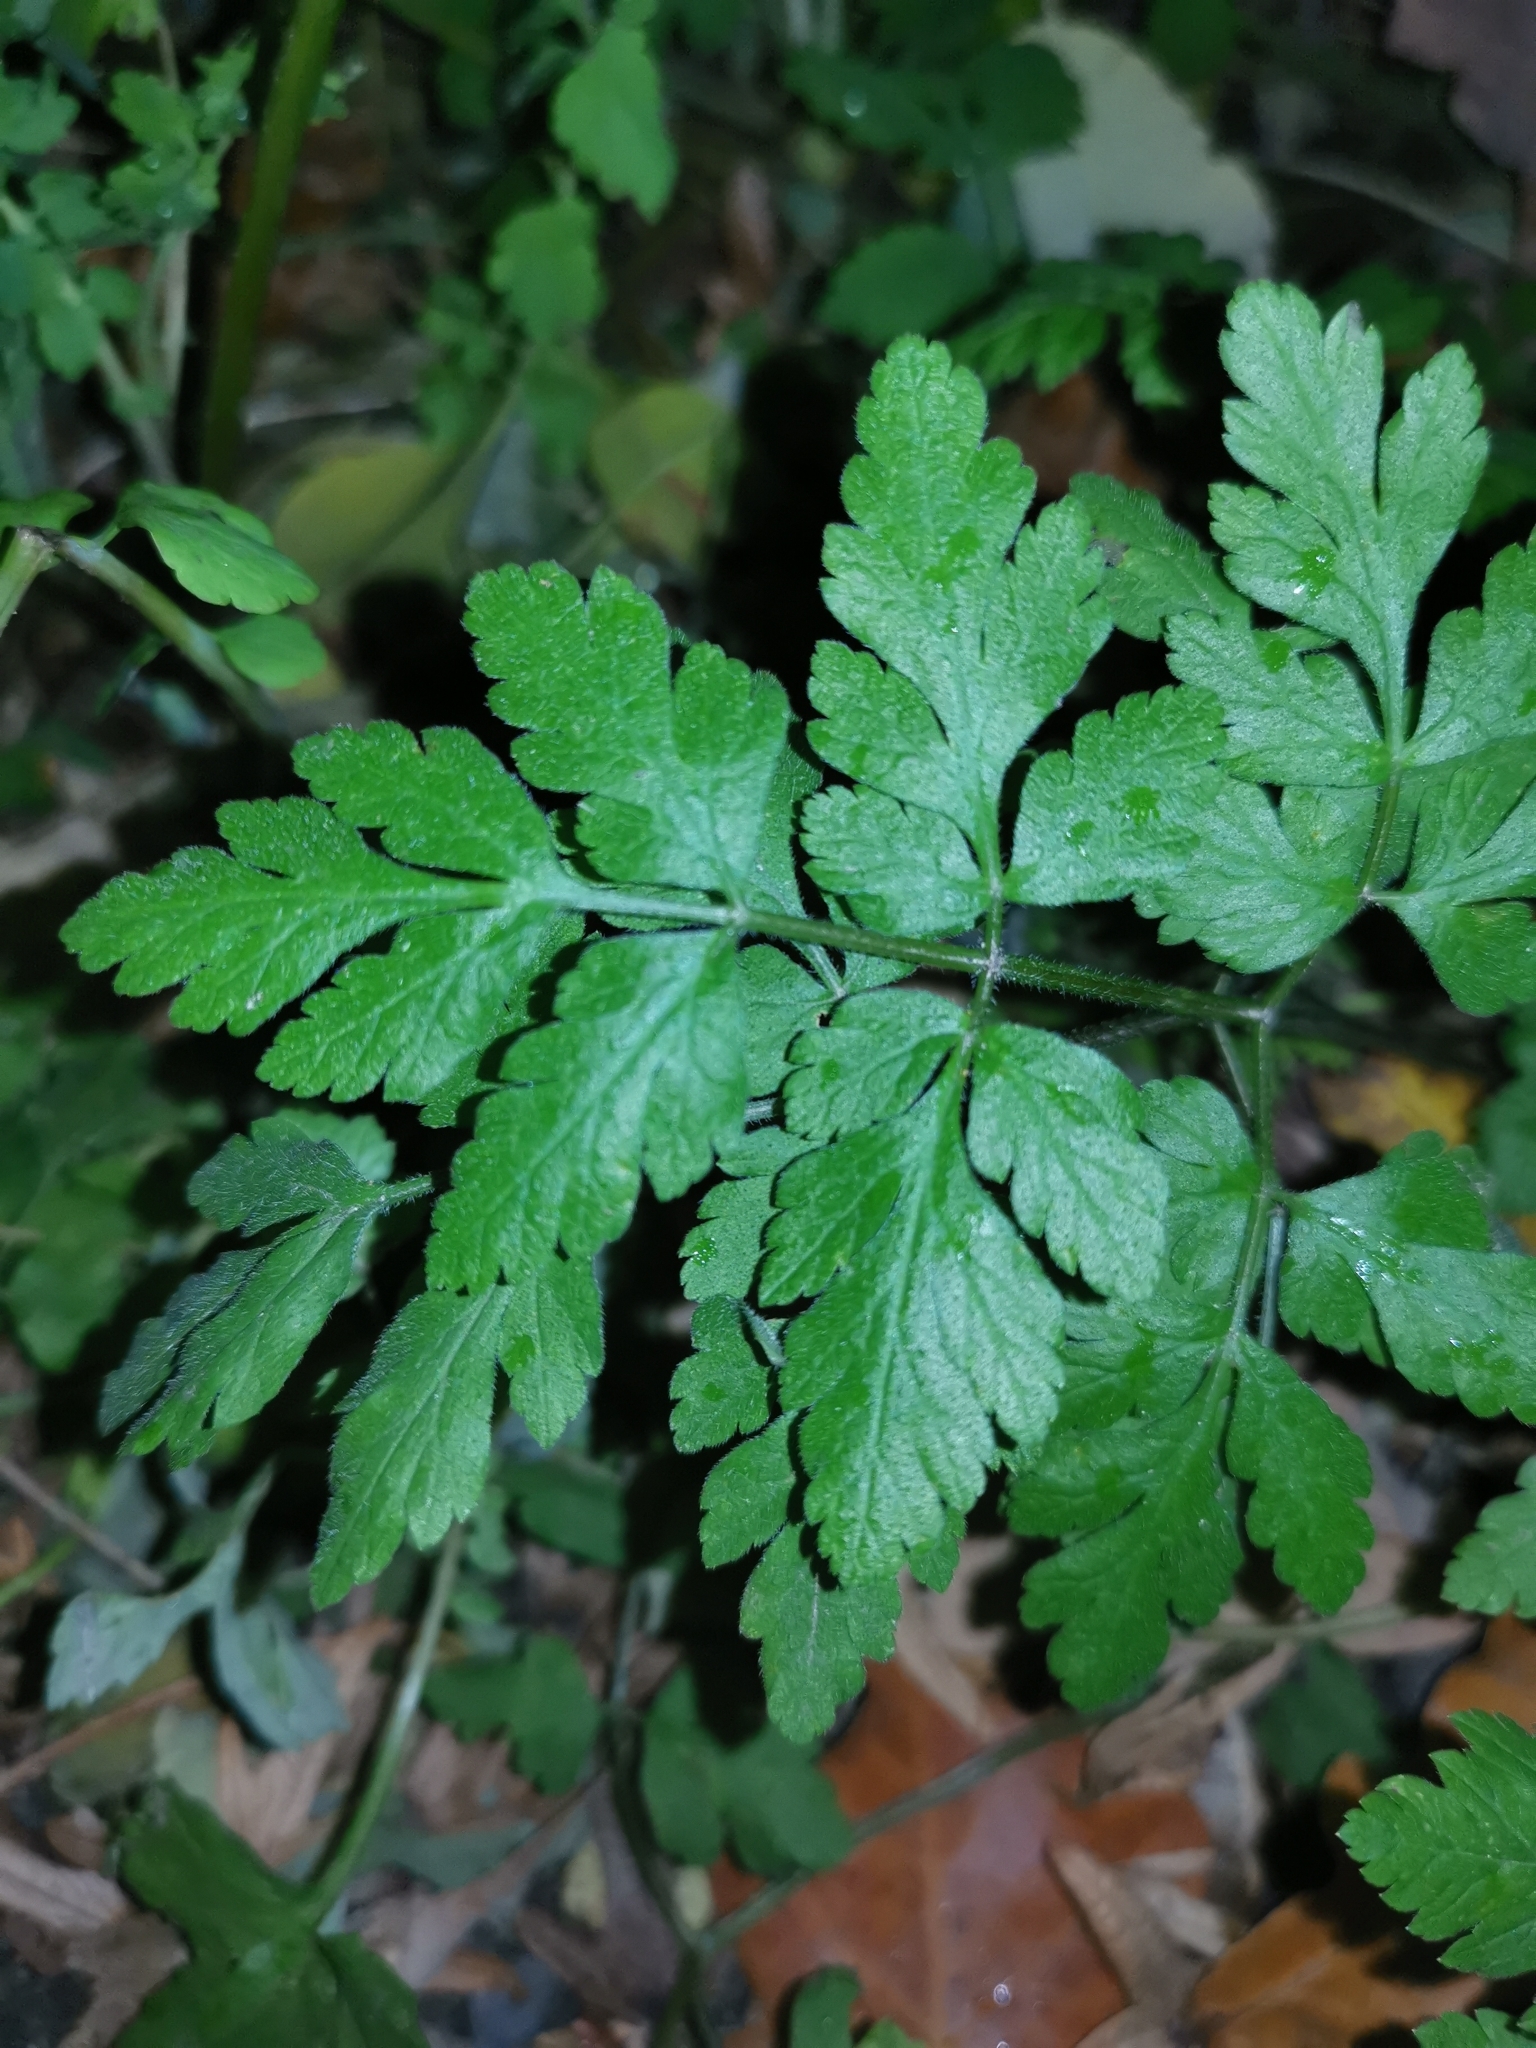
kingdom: Plantae
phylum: Tracheophyta
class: Magnoliopsida
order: Apiales
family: Apiaceae
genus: Chaerophyllum
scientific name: Chaerophyllum temulum
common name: Rough chervil
